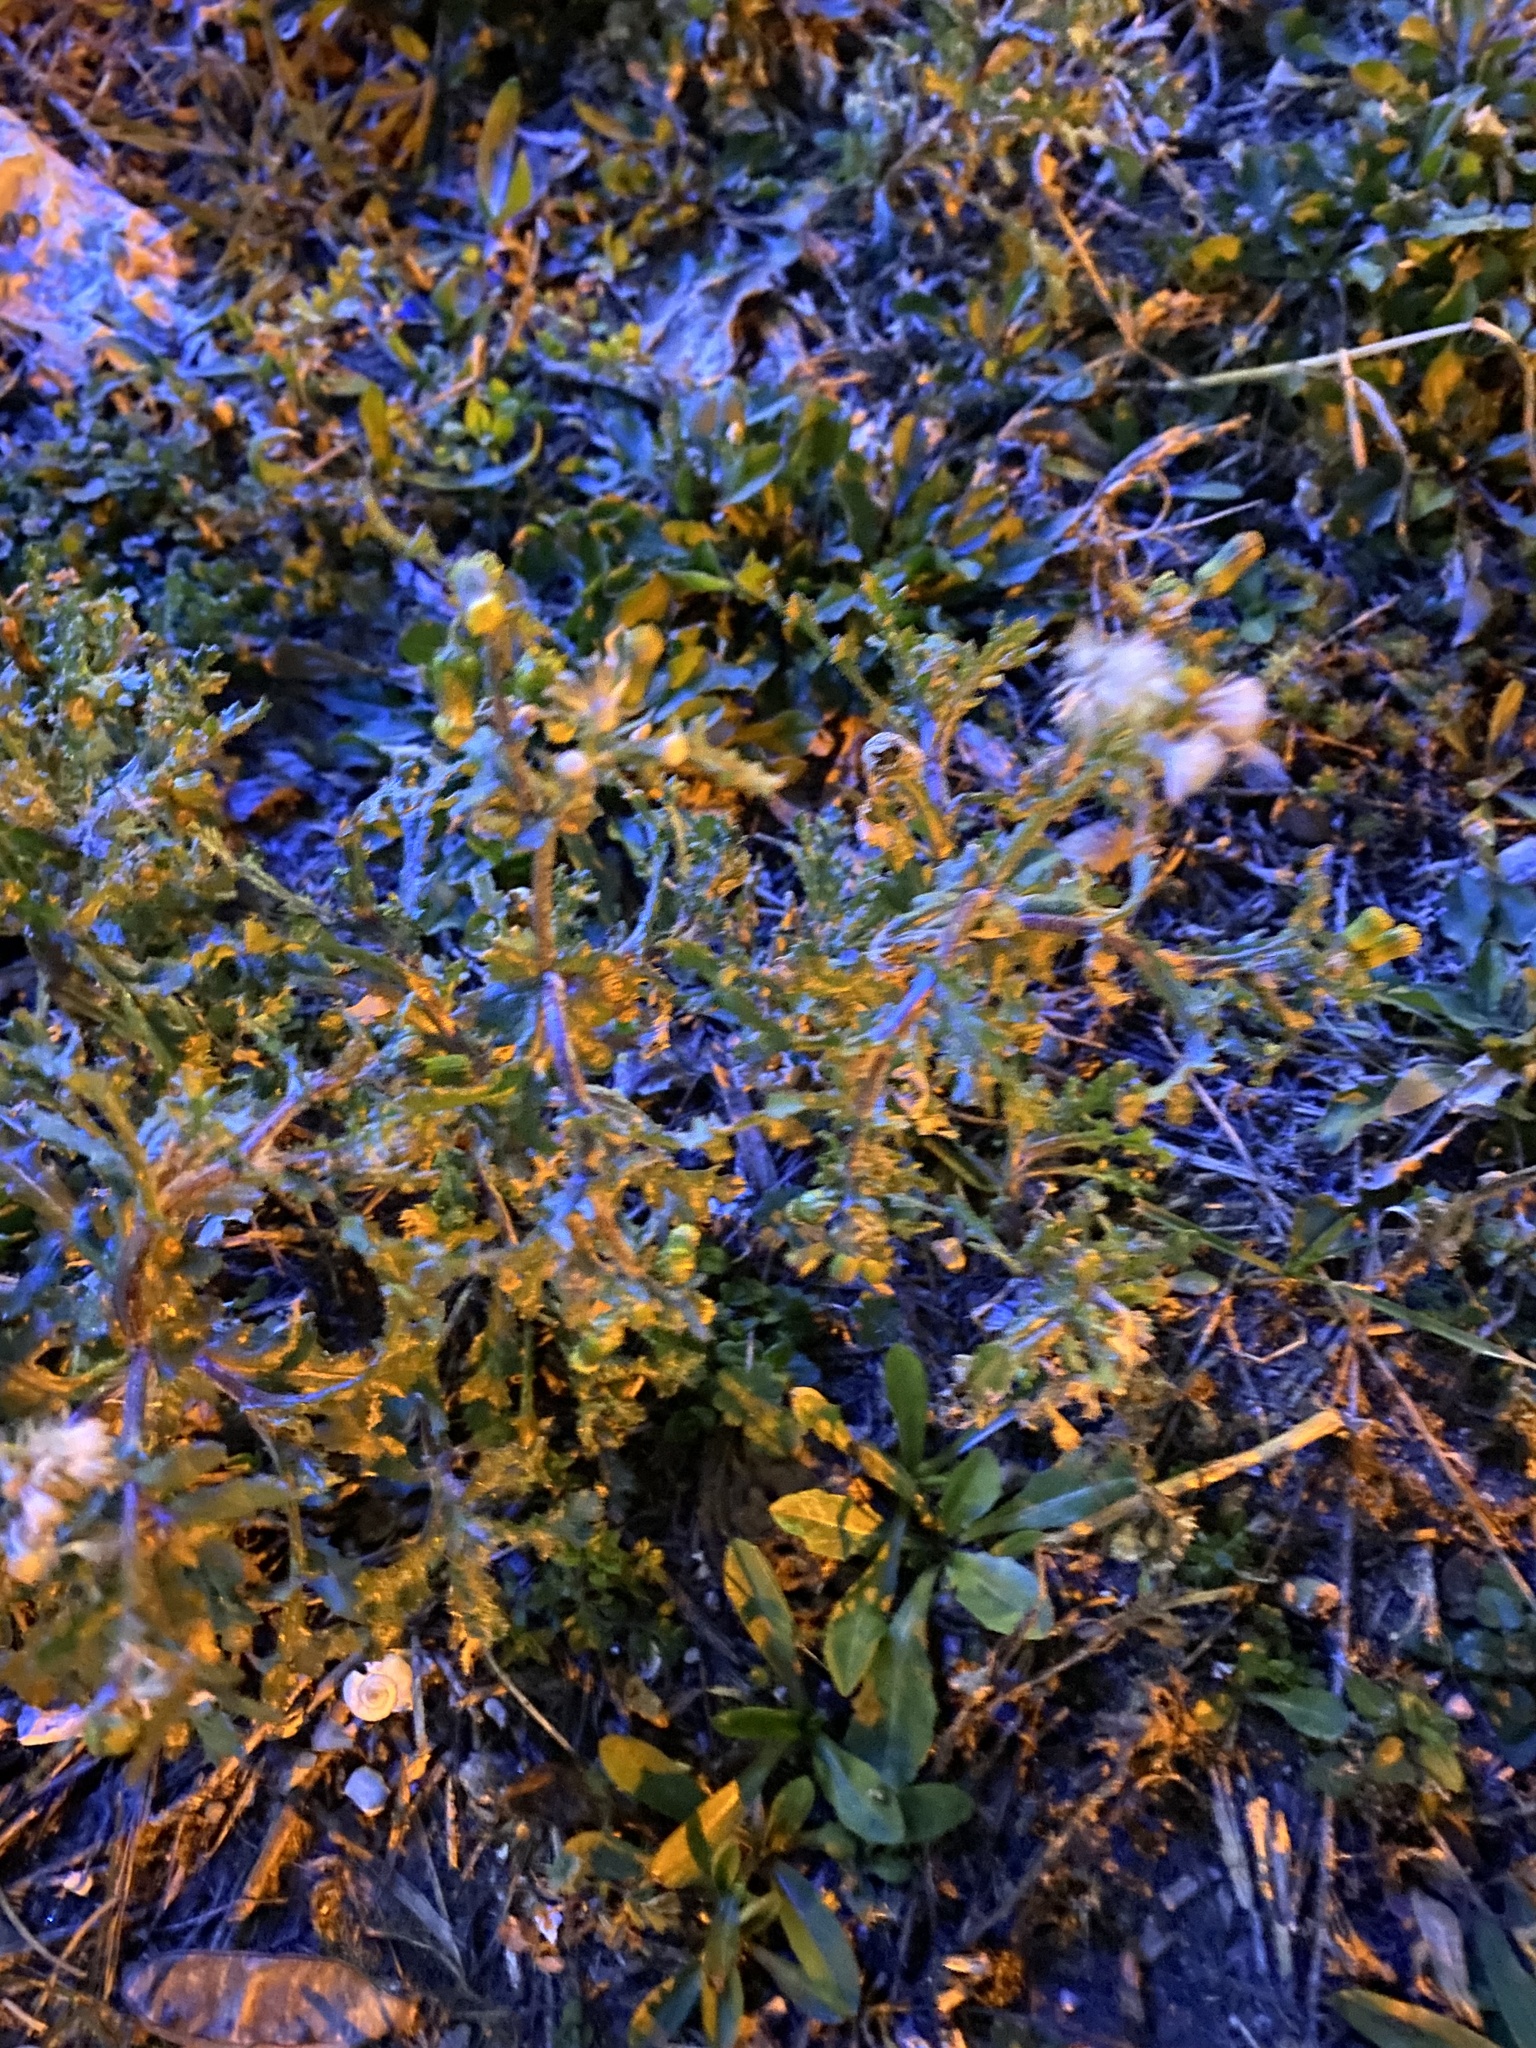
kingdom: Plantae
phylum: Tracheophyta
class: Magnoliopsida
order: Asterales
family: Asteraceae
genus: Senecio
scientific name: Senecio vulgaris
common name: Old-man-in-the-spring
